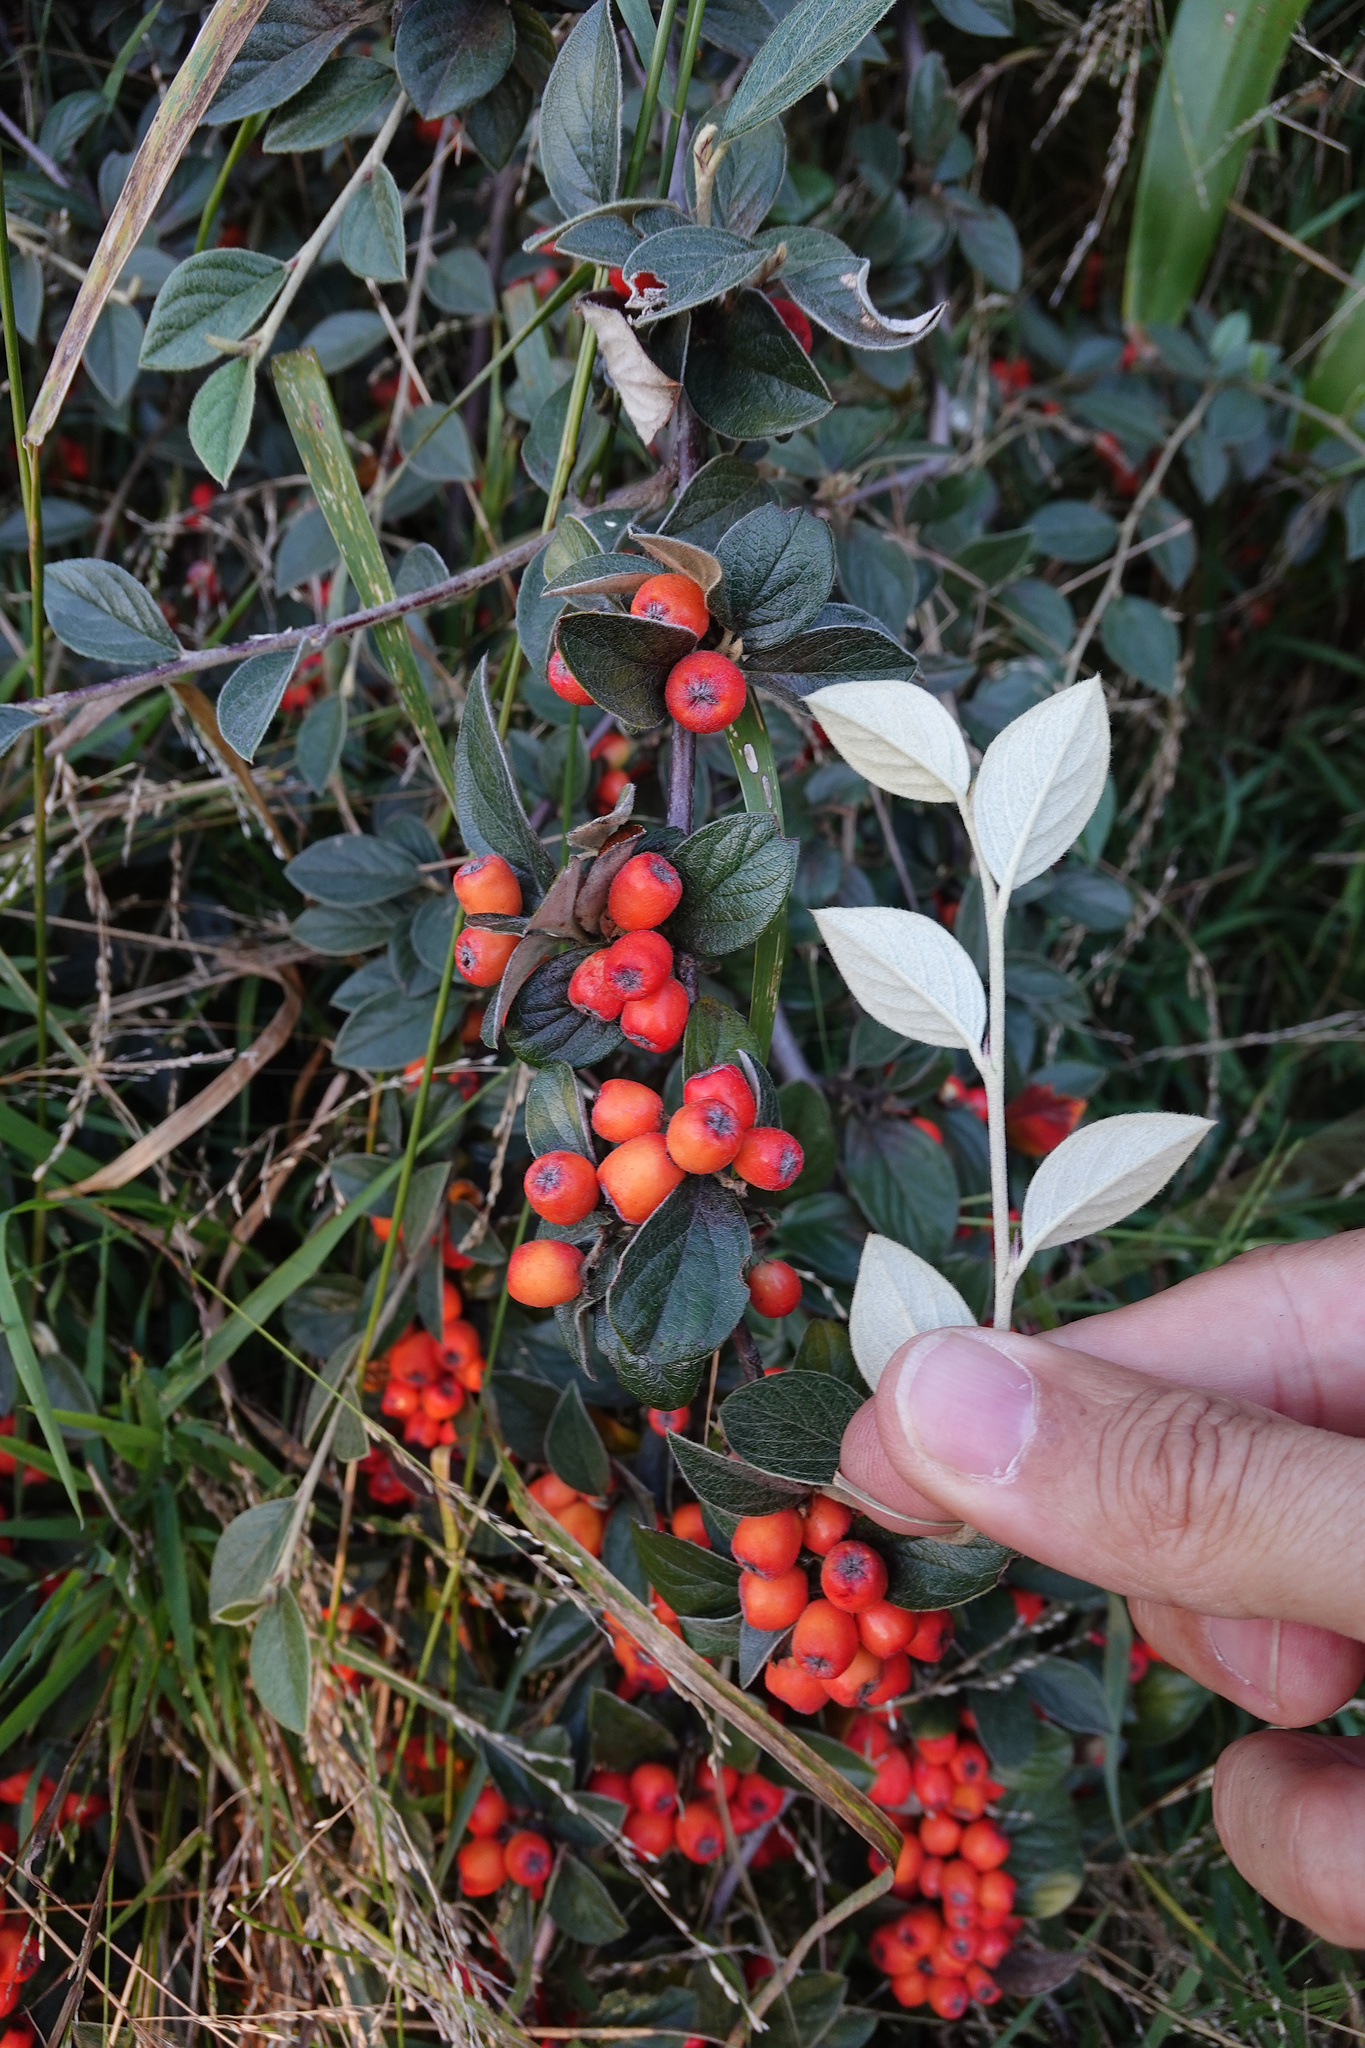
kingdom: Plantae
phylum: Tracheophyta
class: Magnoliopsida
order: Rosales
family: Rosaceae
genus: Cotoneaster
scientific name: Cotoneaster franchetii
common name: Franchet's cotoneaster
